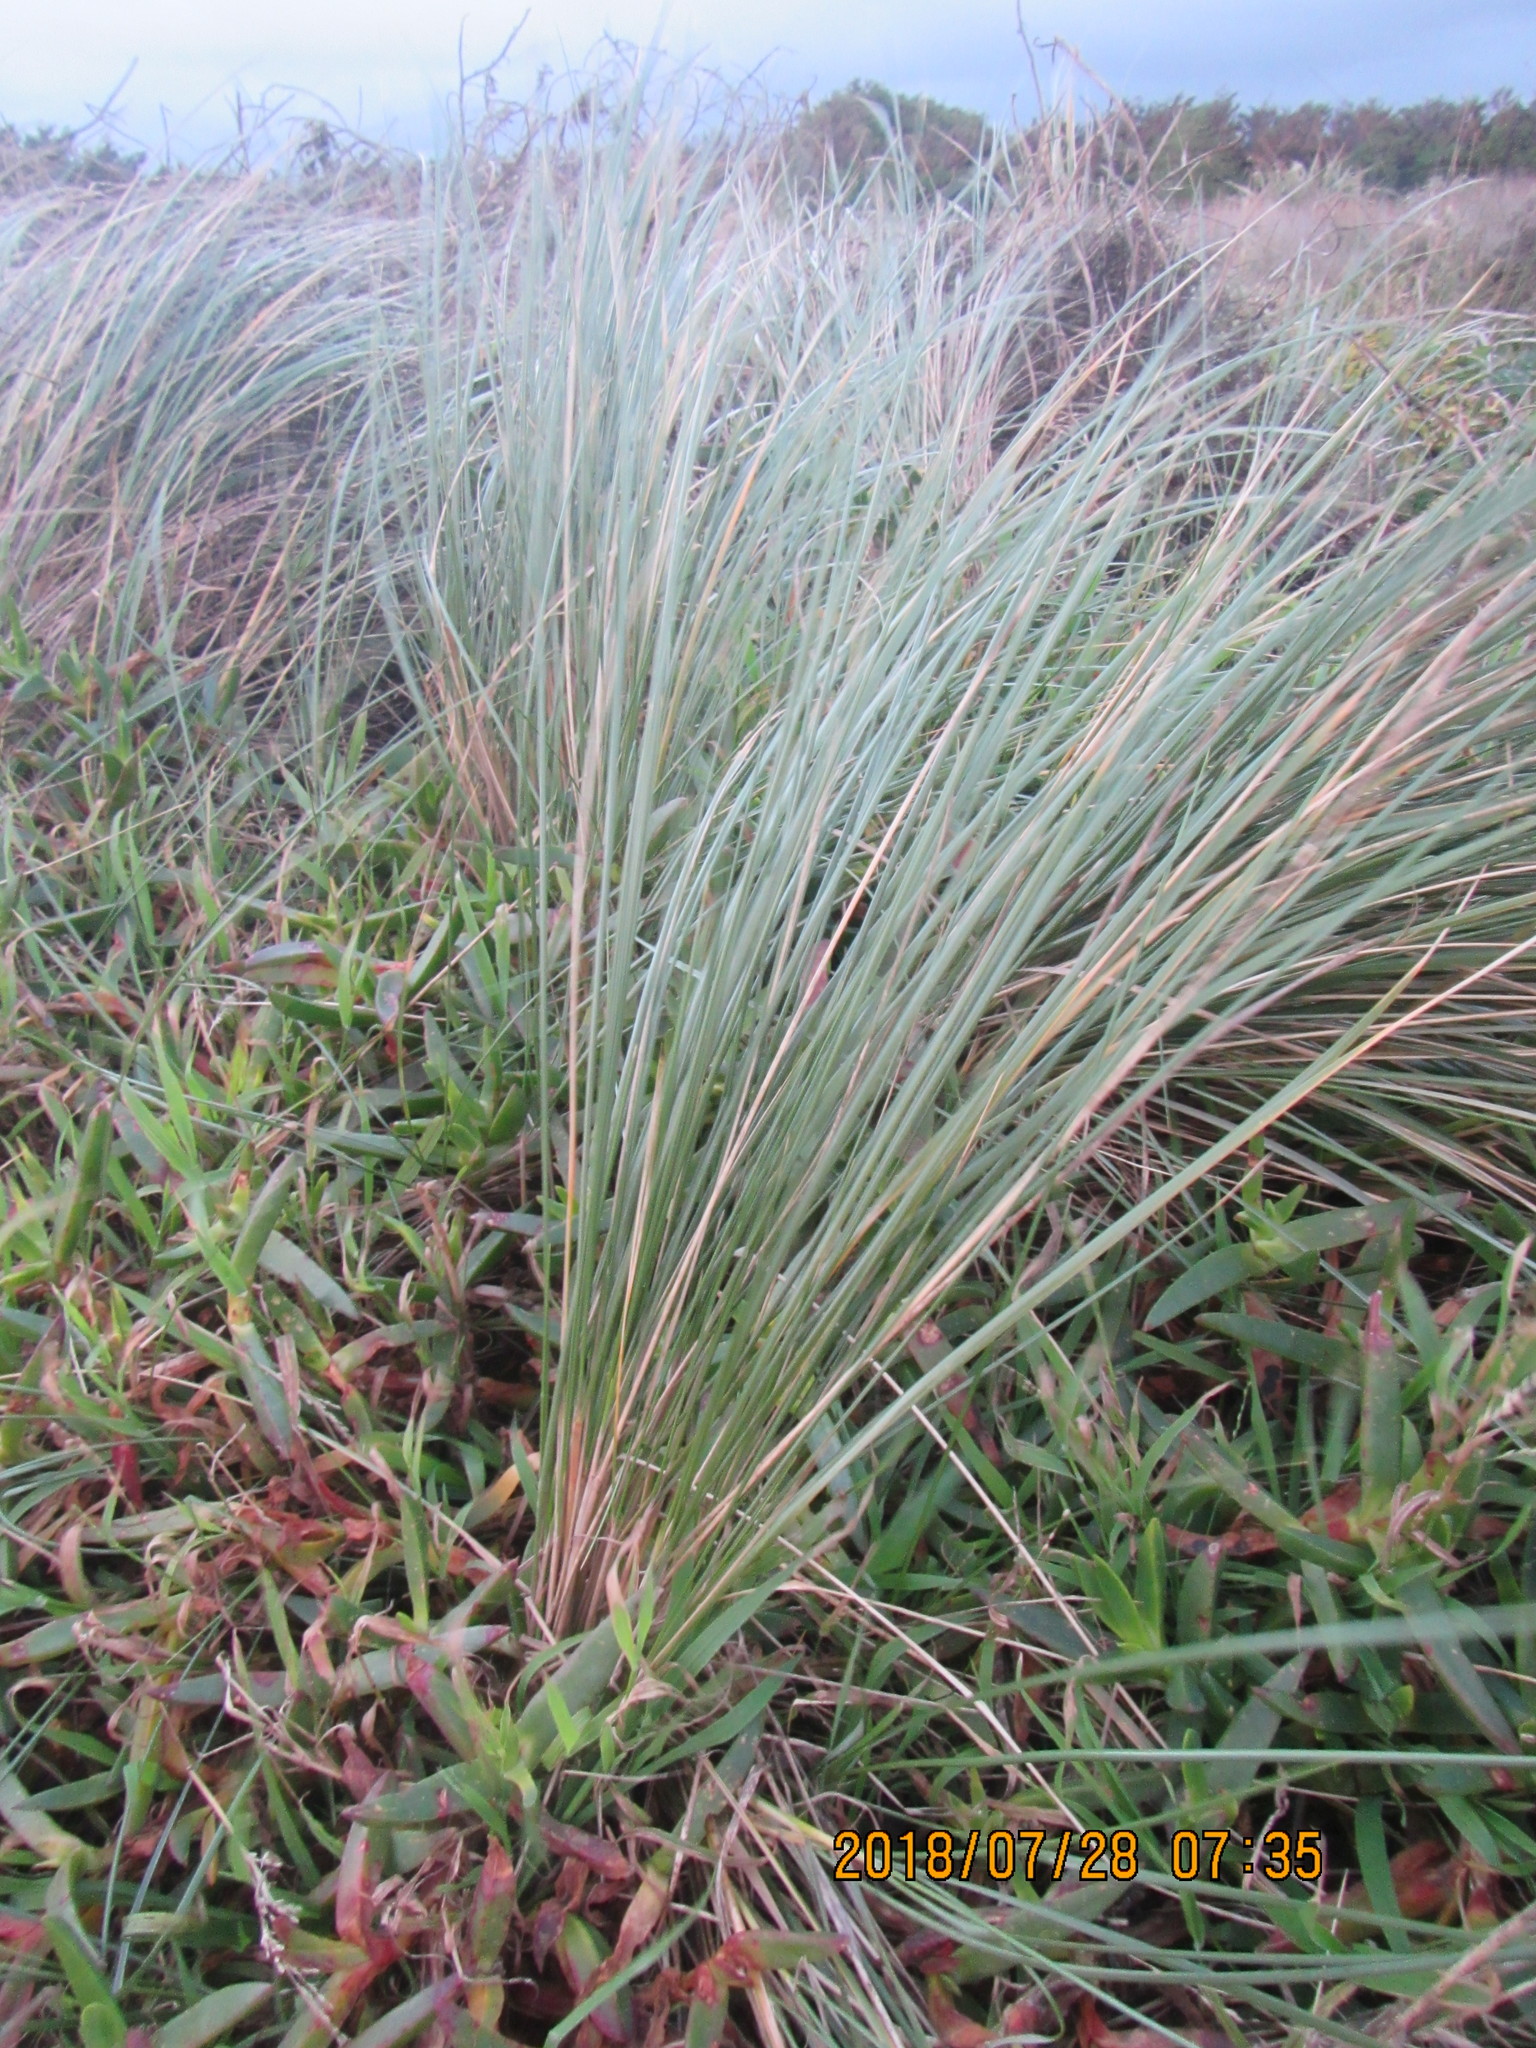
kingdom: Plantae
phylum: Tracheophyta
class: Liliopsida
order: Poales
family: Poaceae
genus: Calamagrostis
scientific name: Calamagrostis arenaria
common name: European beachgrass
